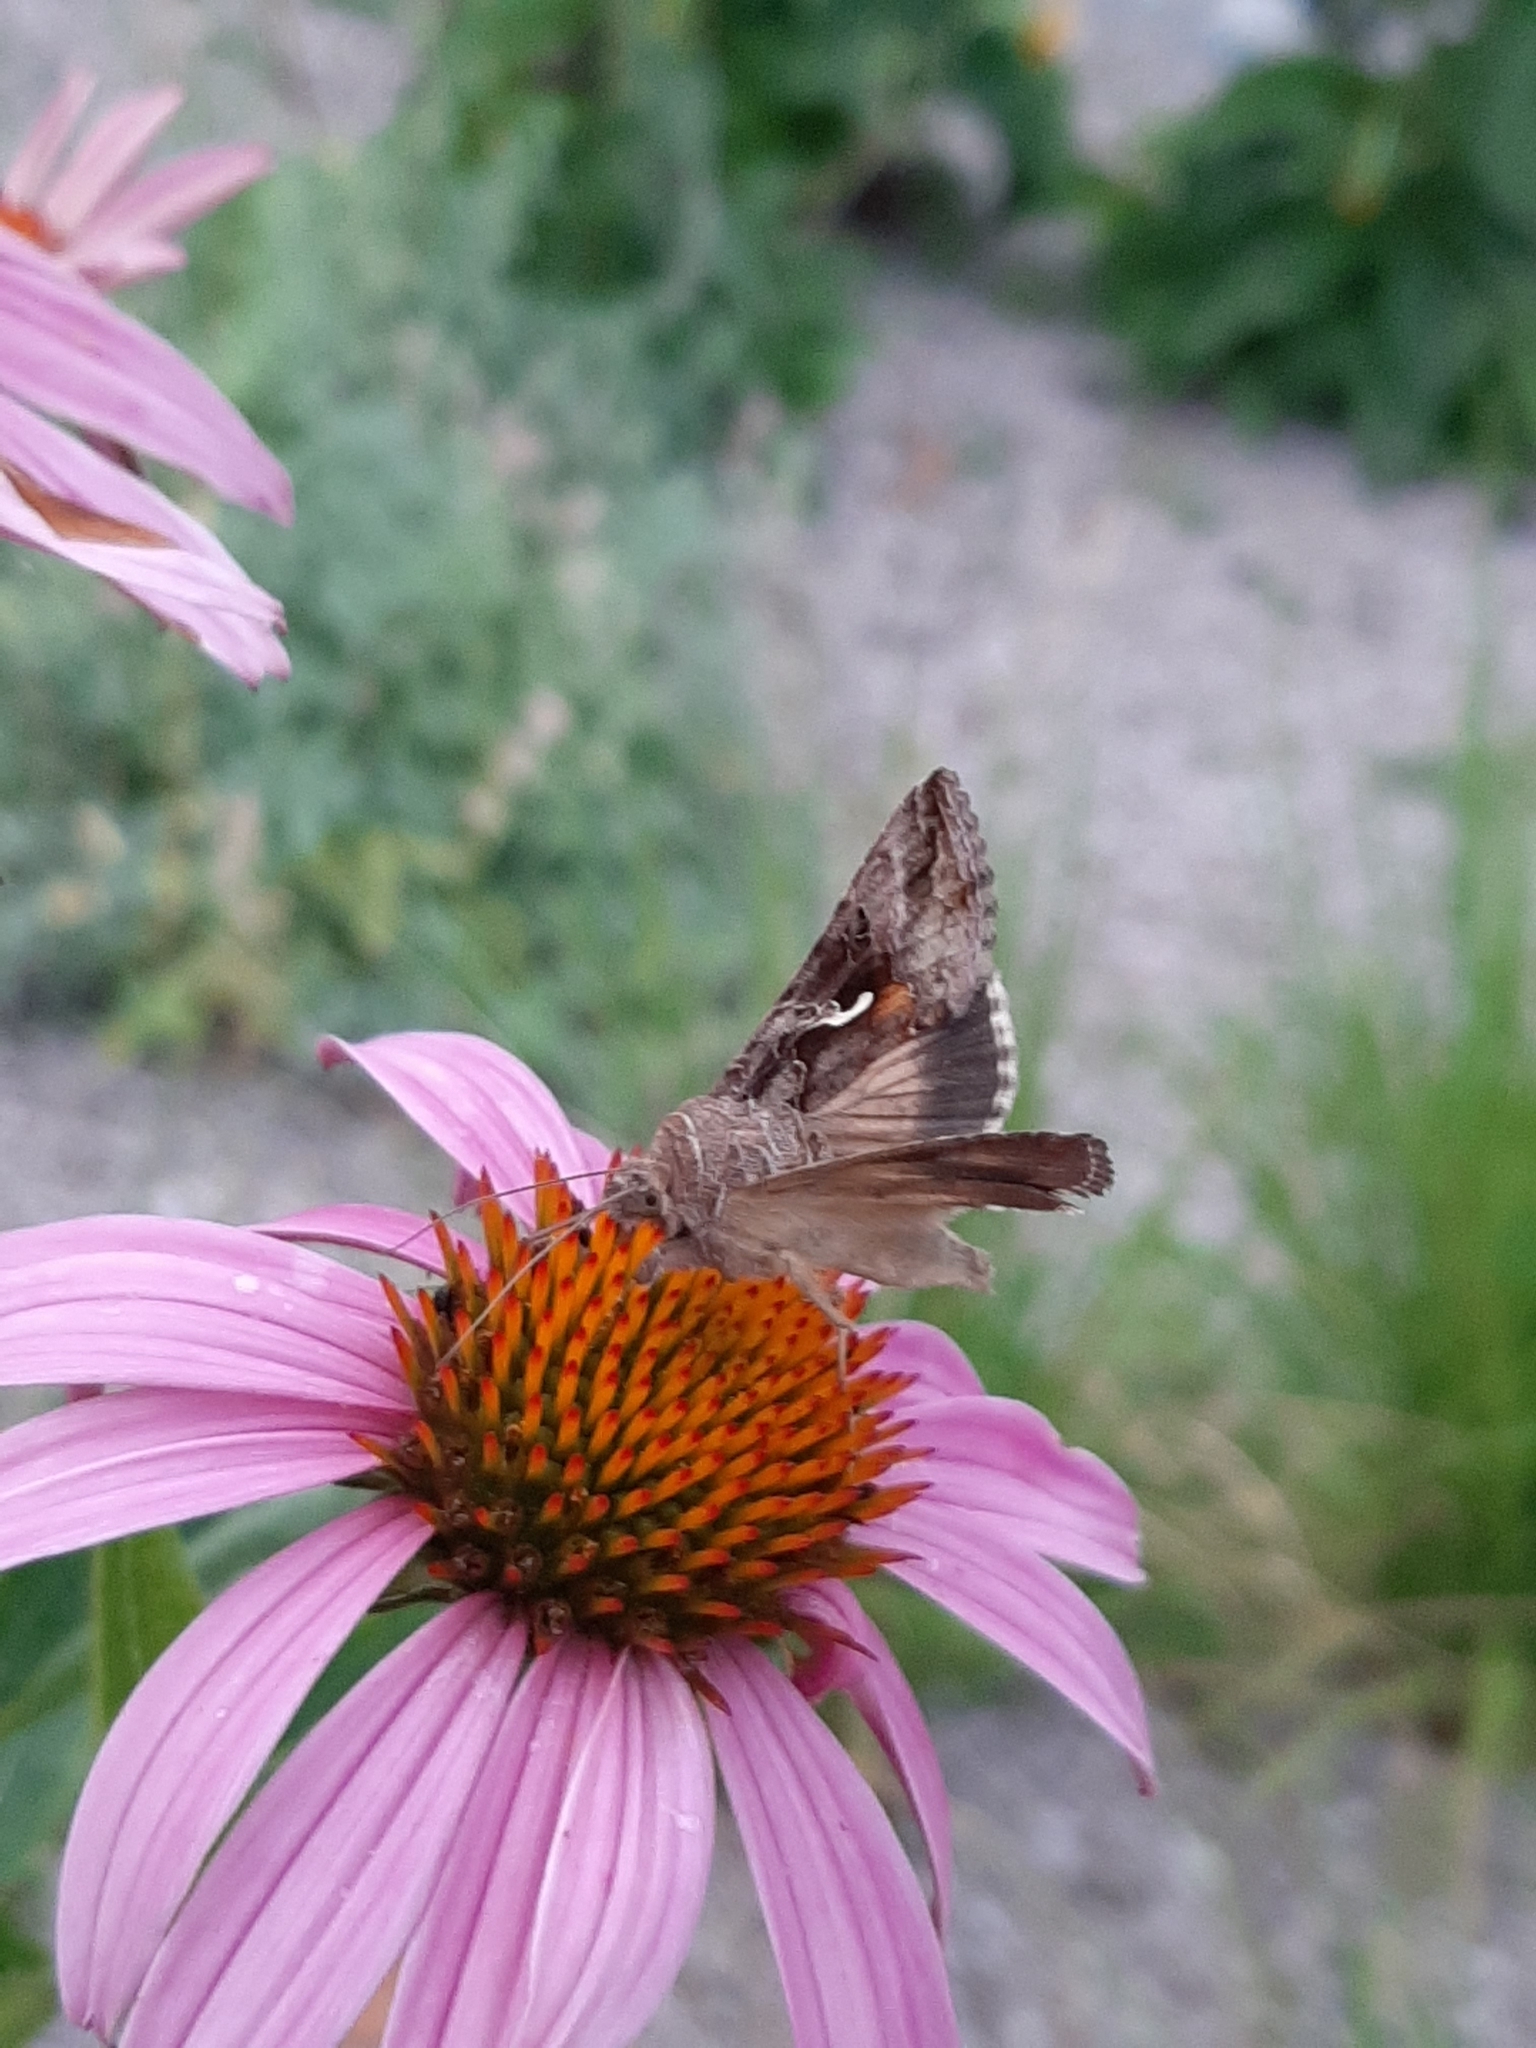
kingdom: Animalia
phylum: Arthropoda
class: Insecta
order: Lepidoptera
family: Noctuidae
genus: Autographa
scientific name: Autographa gamma
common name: Silver y
